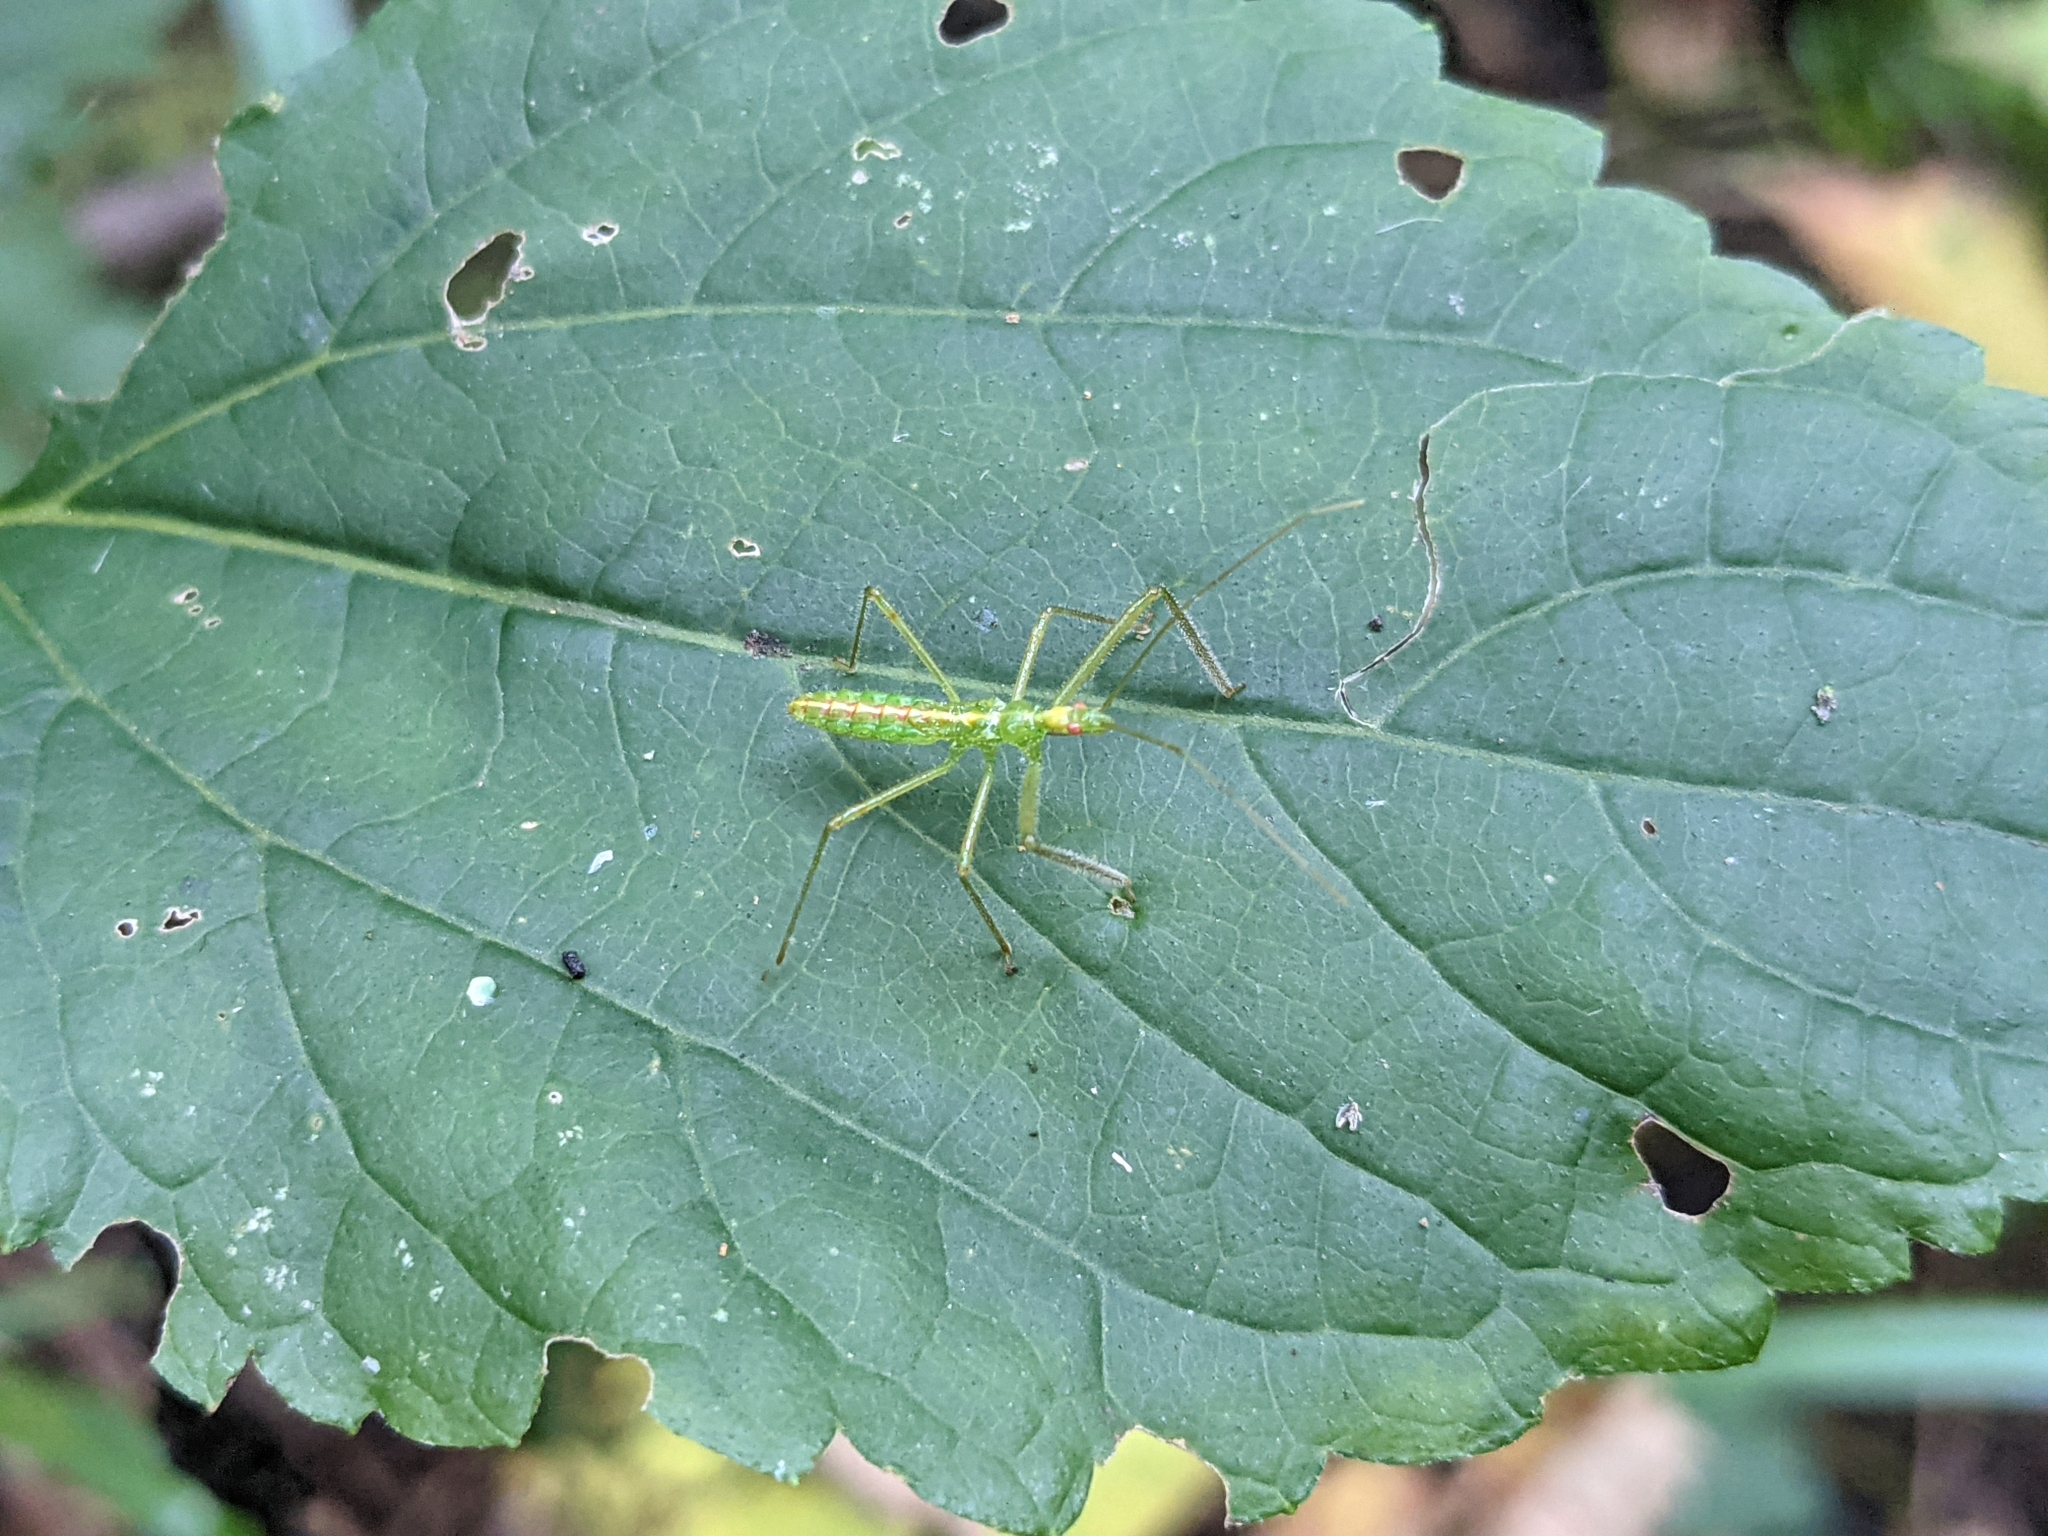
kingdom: Animalia
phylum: Arthropoda
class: Insecta
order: Hemiptera
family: Reduviidae
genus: Zelus
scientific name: Zelus luridus
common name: Pale green assassin bug
